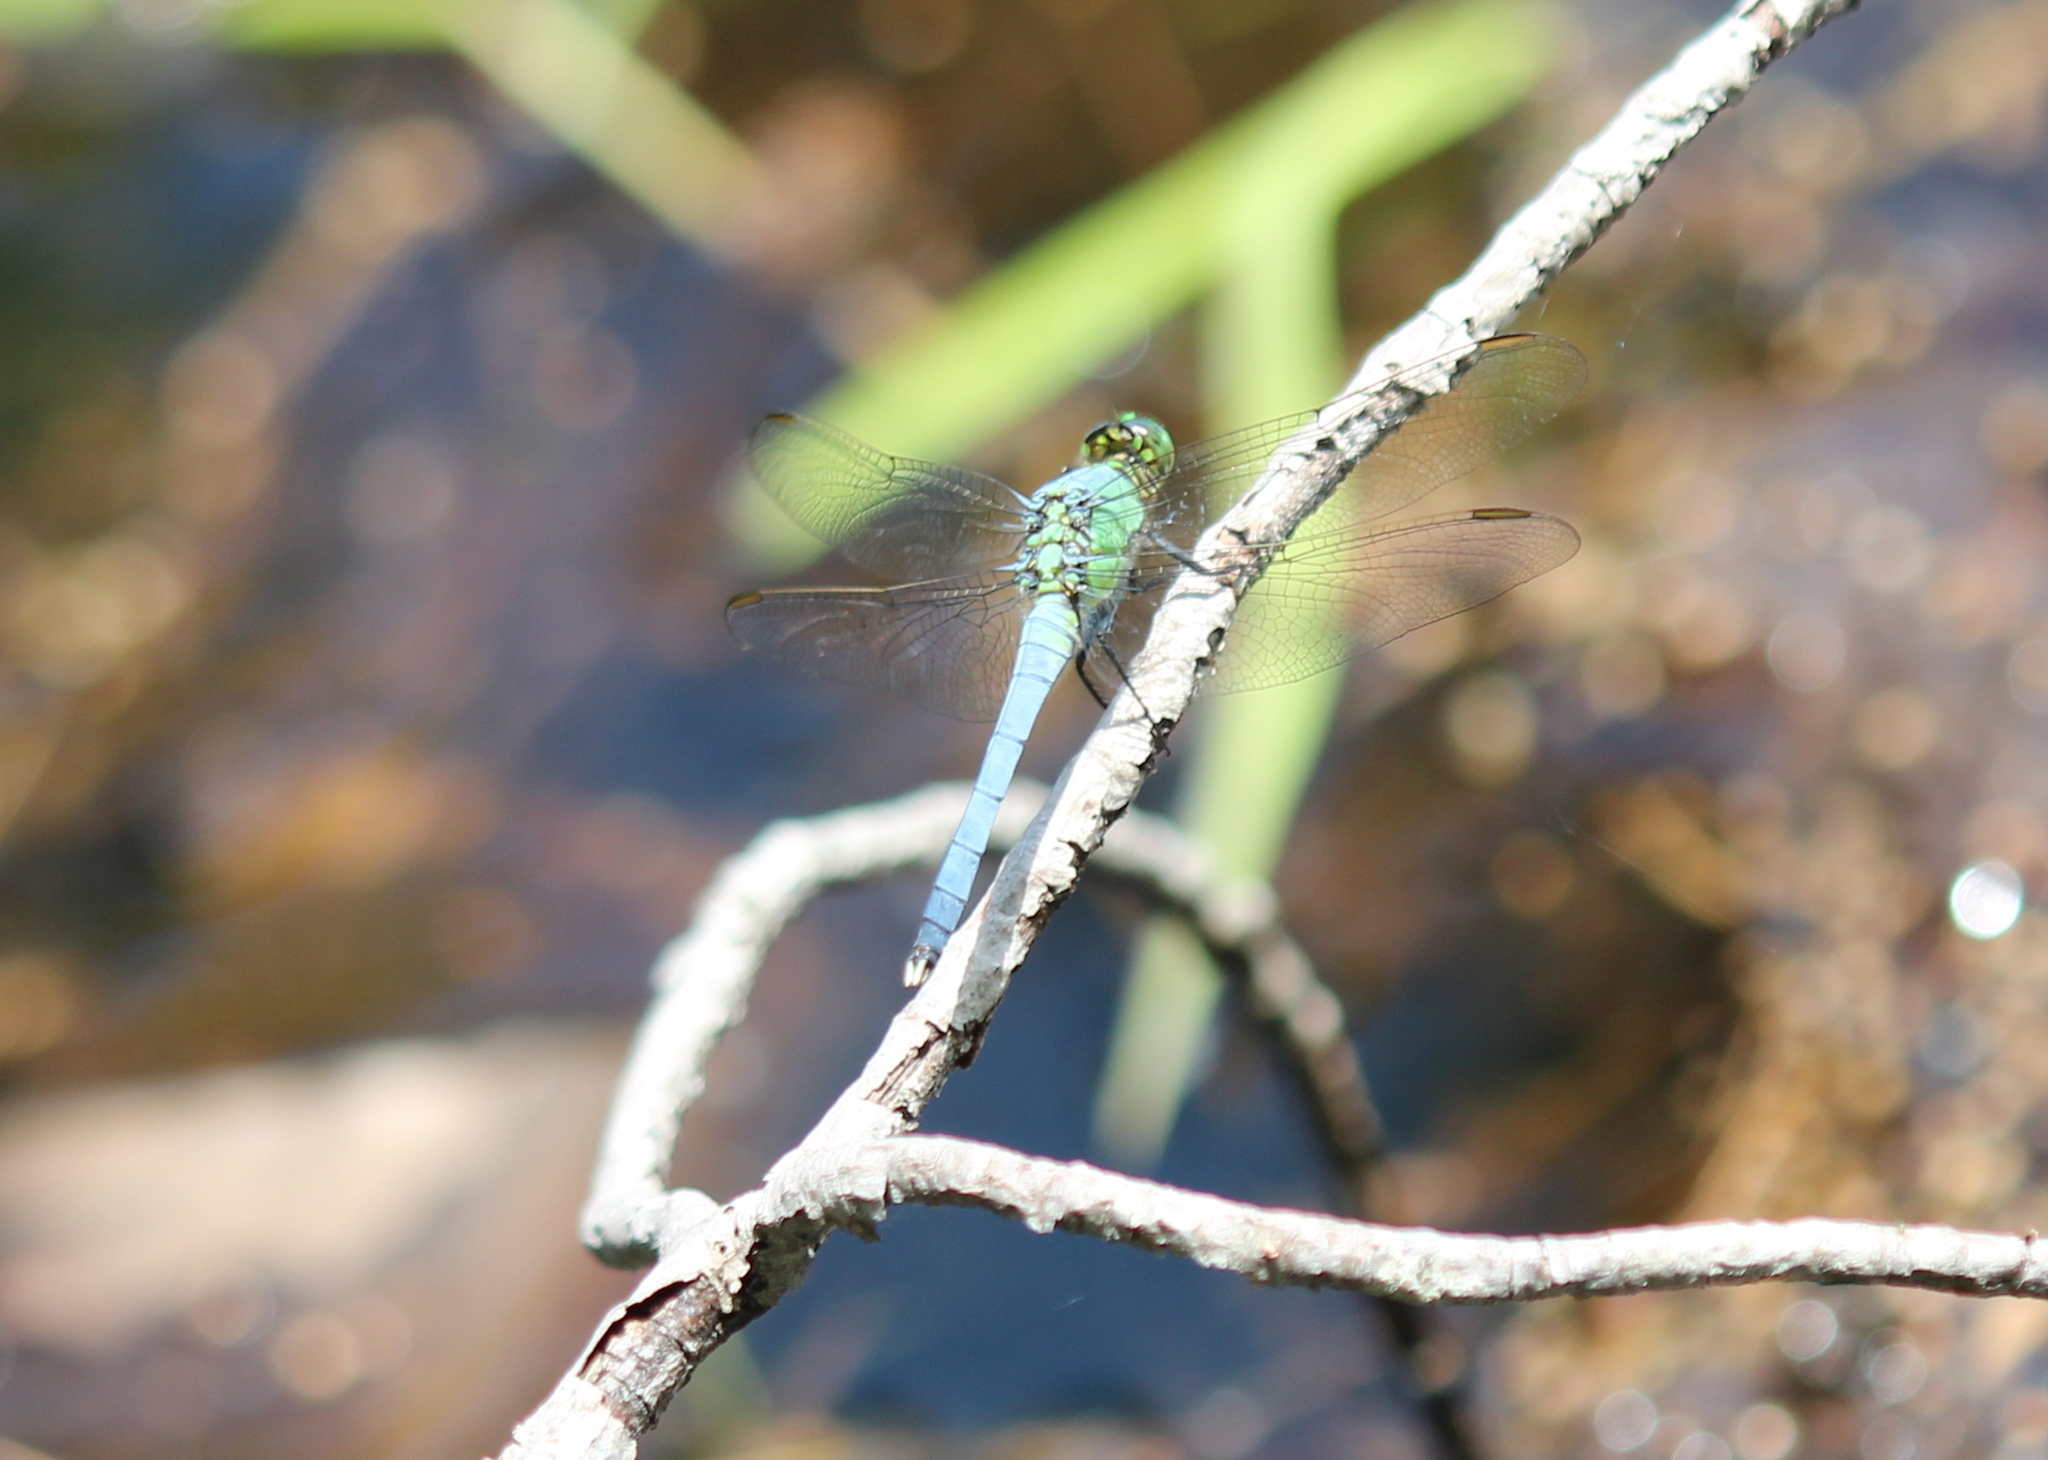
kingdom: Animalia
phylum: Arthropoda
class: Insecta
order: Odonata
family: Libellulidae
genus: Erythemis
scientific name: Erythemis simplicicollis
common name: Eastern pondhawk
